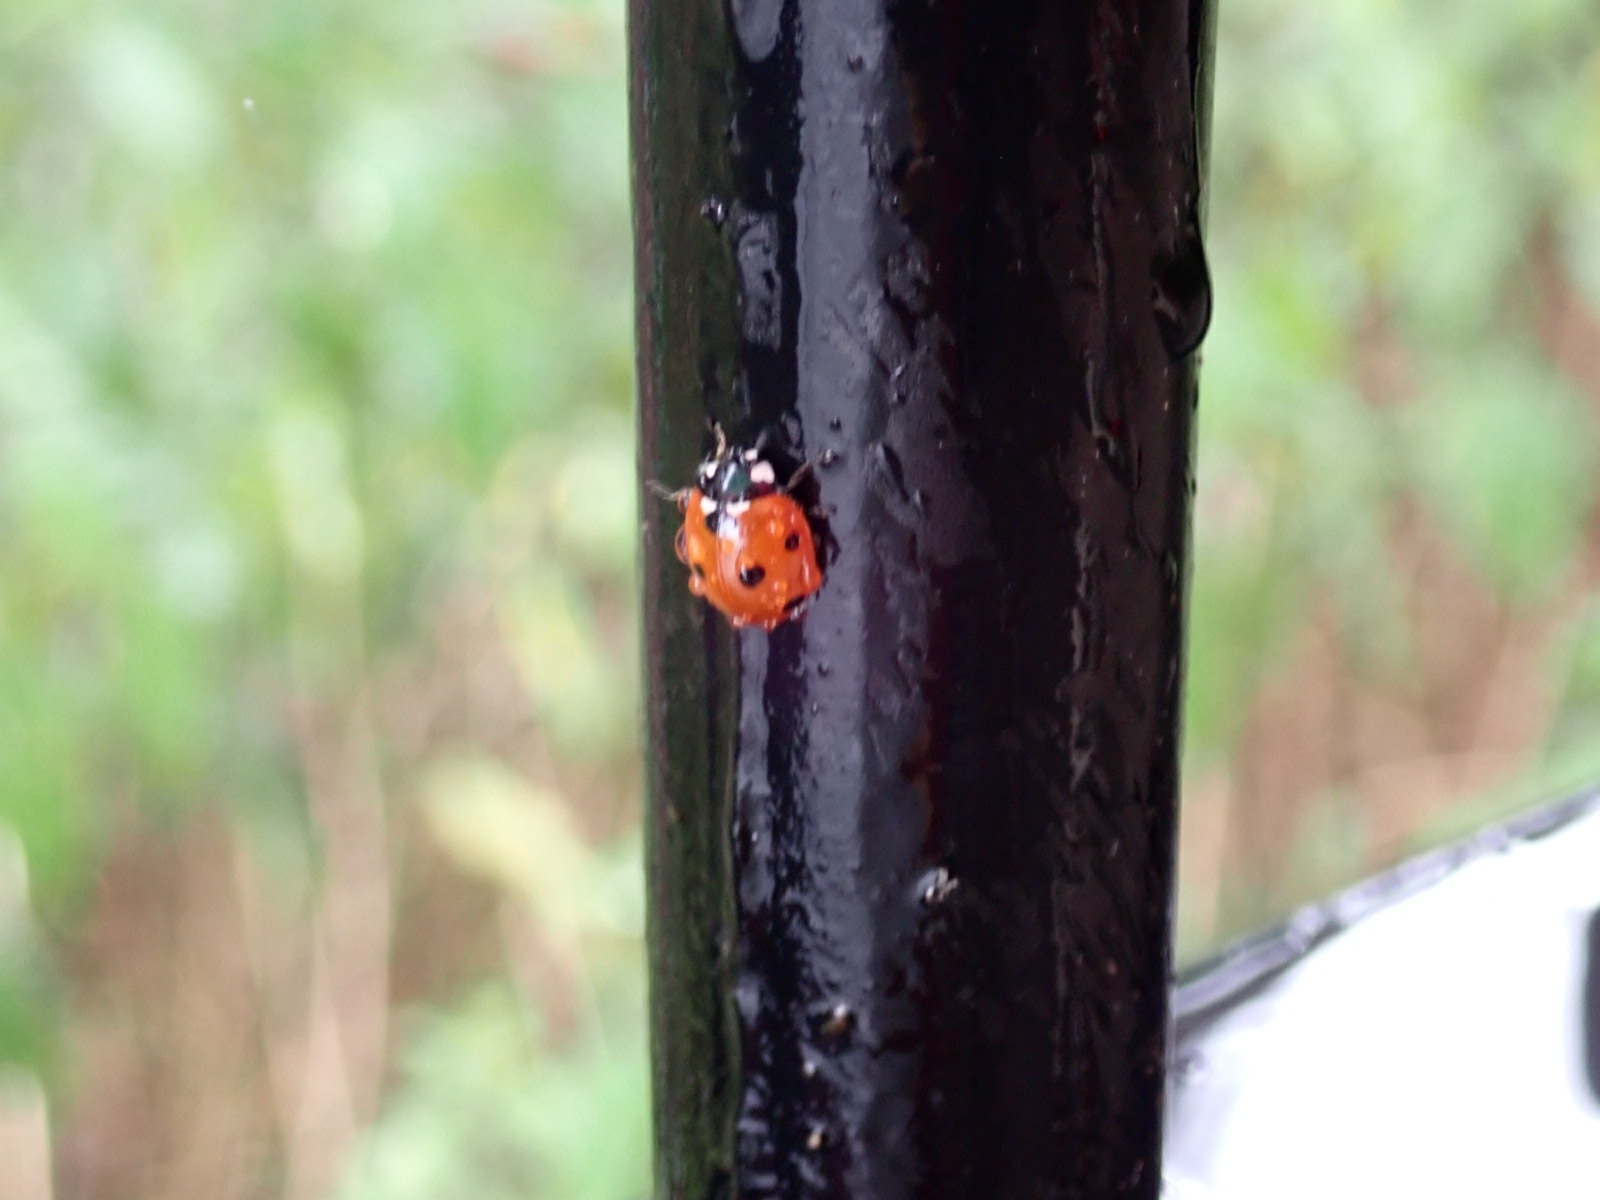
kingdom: Animalia
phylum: Arthropoda
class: Insecta
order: Coleoptera
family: Coccinellidae
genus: Coccinella
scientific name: Coccinella septempunctata
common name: Sevenspotted lady beetle
